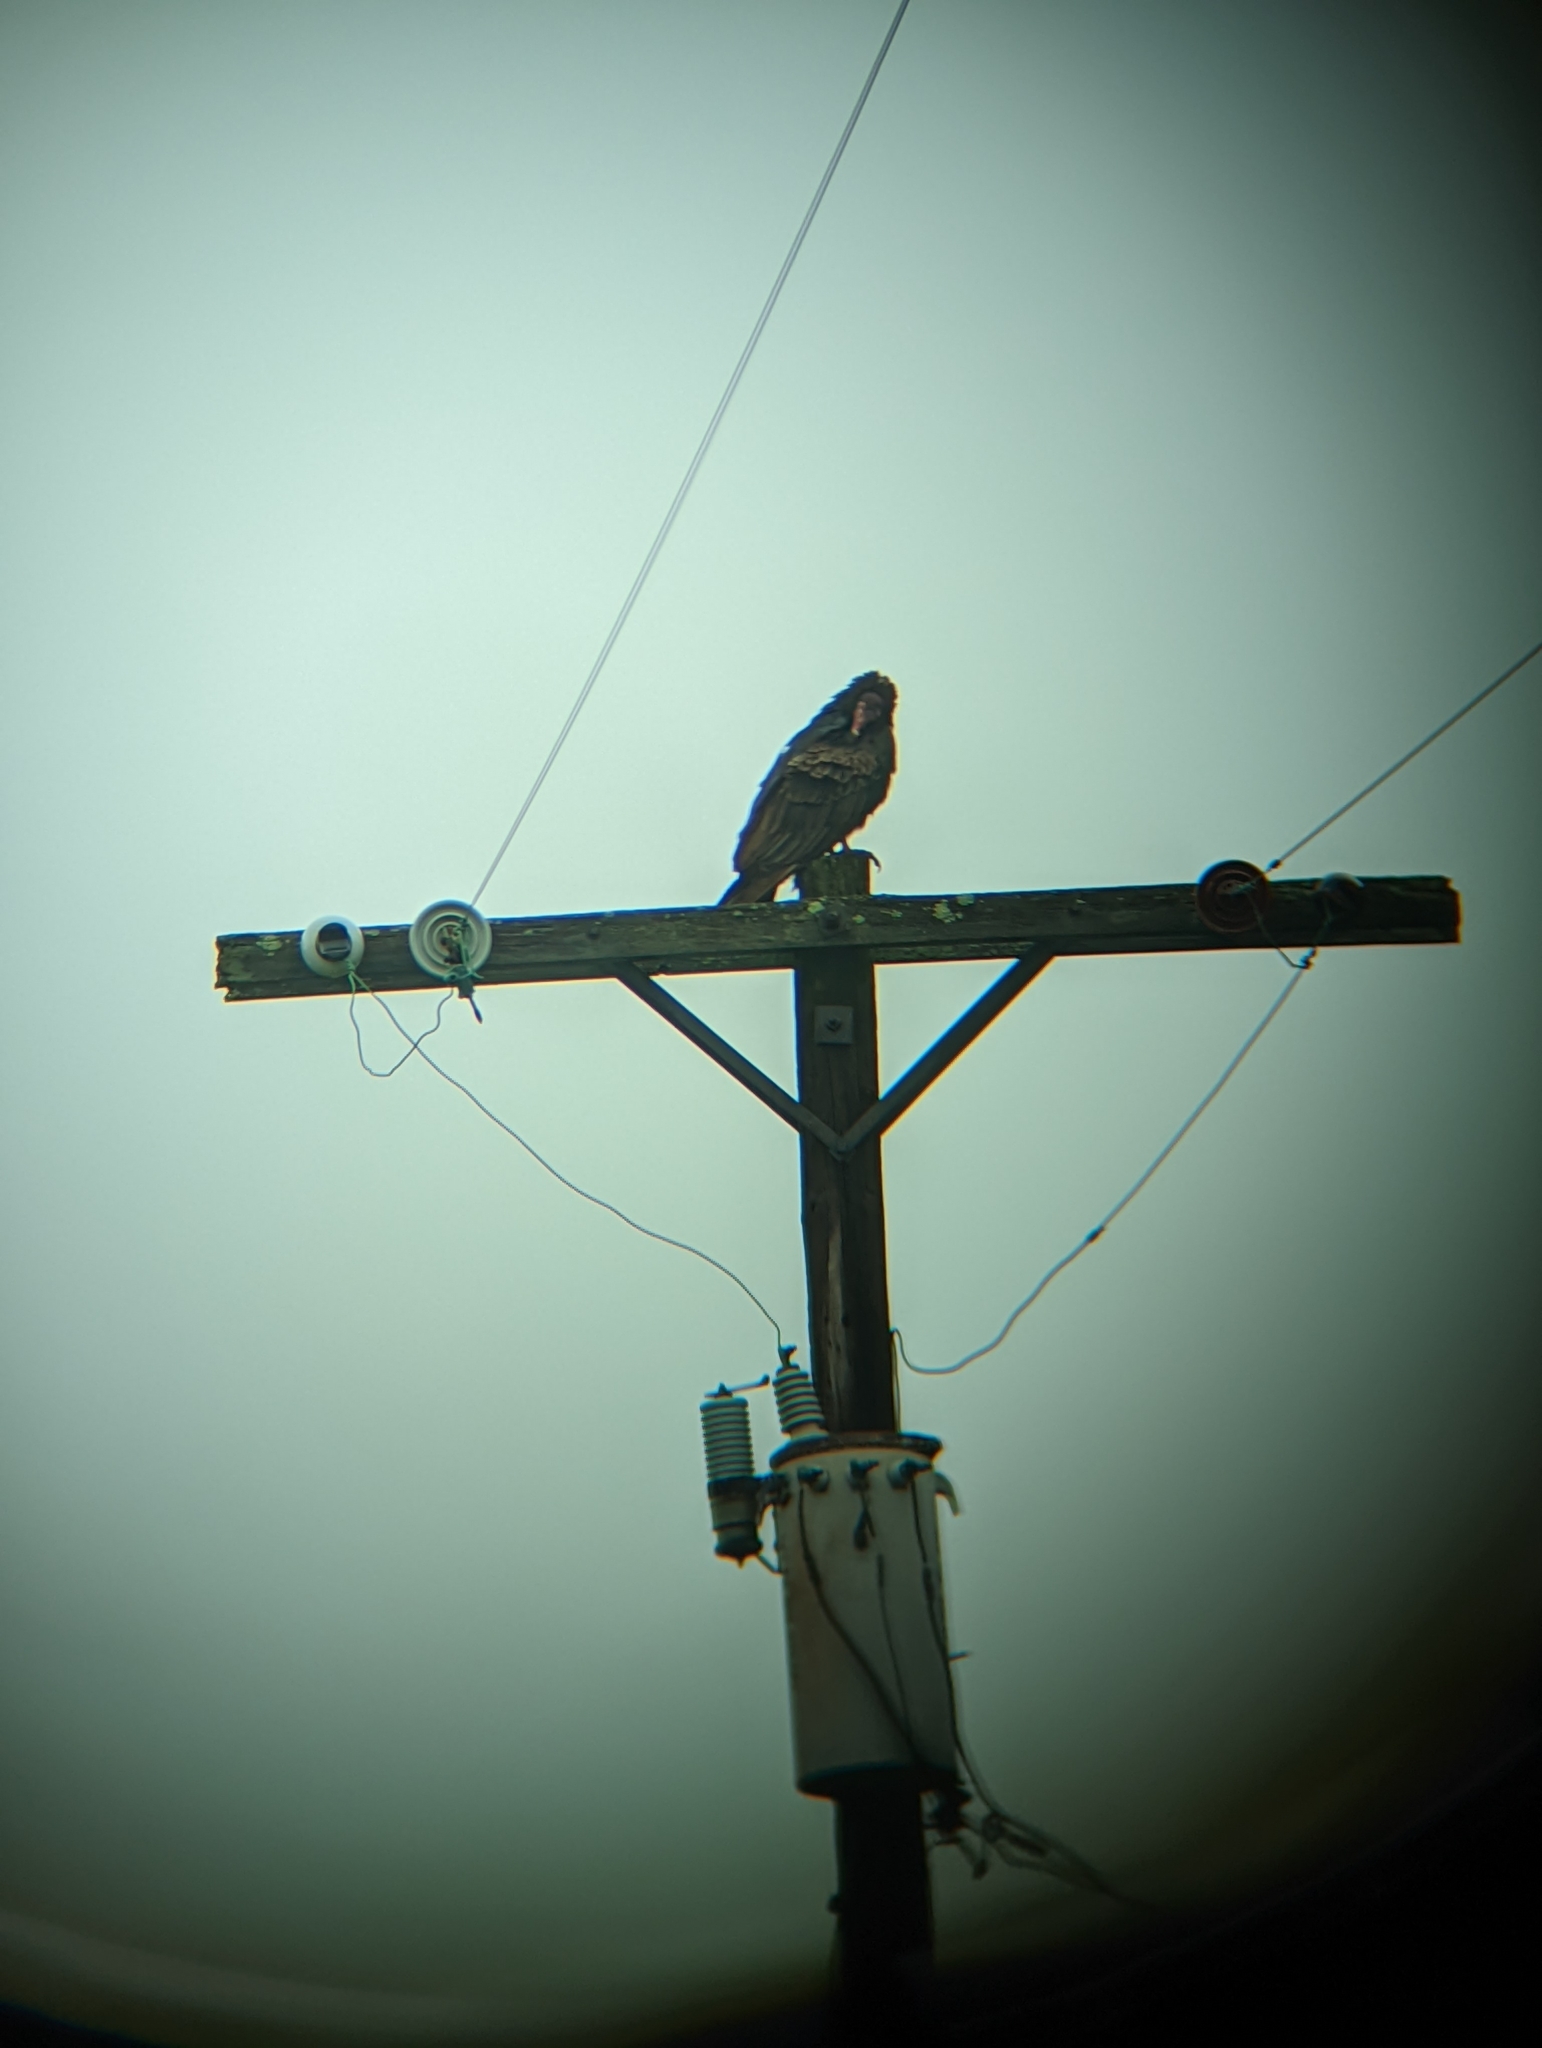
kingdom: Animalia
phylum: Chordata
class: Aves
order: Accipitriformes
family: Cathartidae
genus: Cathartes
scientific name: Cathartes aura
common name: Turkey vulture
